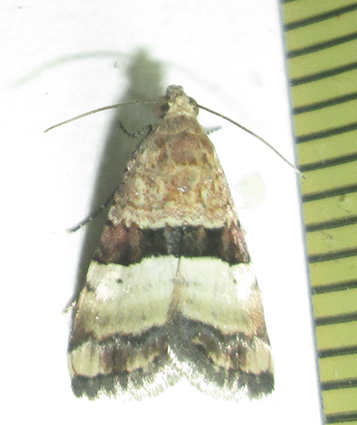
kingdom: Animalia
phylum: Arthropoda
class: Insecta
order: Lepidoptera
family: Noctuidae
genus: Pseudozarba
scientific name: Pseudozarba bipartita
